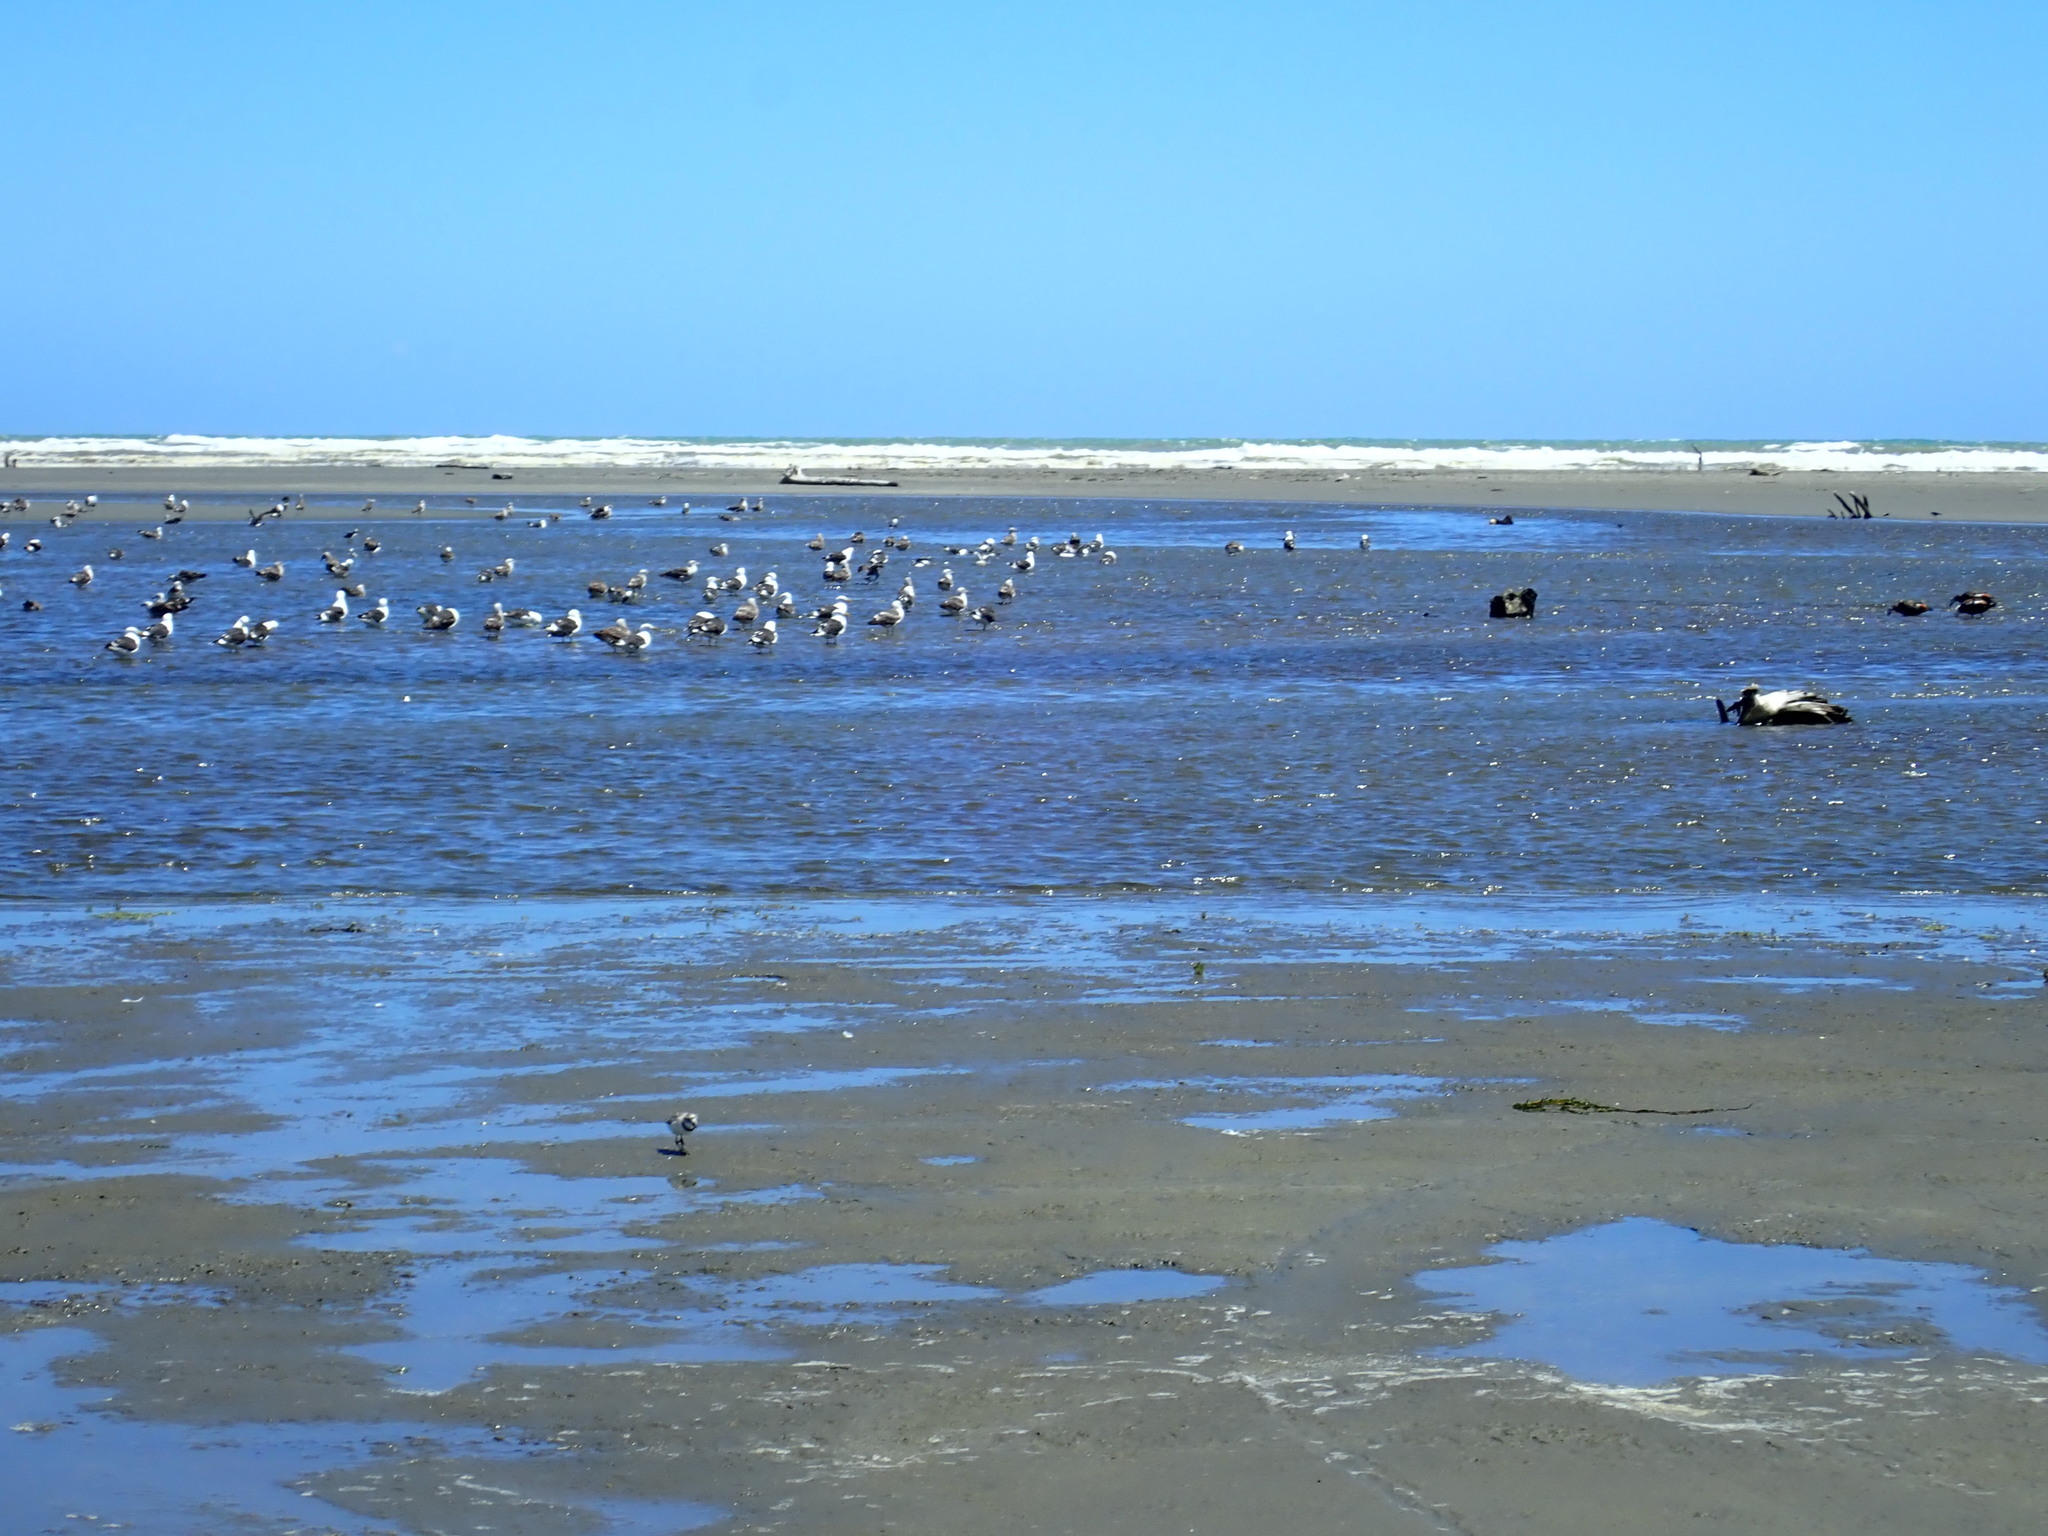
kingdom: Animalia
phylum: Chordata
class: Aves
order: Charadriiformes
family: Charadriidae
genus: Anarhynchus
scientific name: Anarhynchus frontalis
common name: Wrybill
